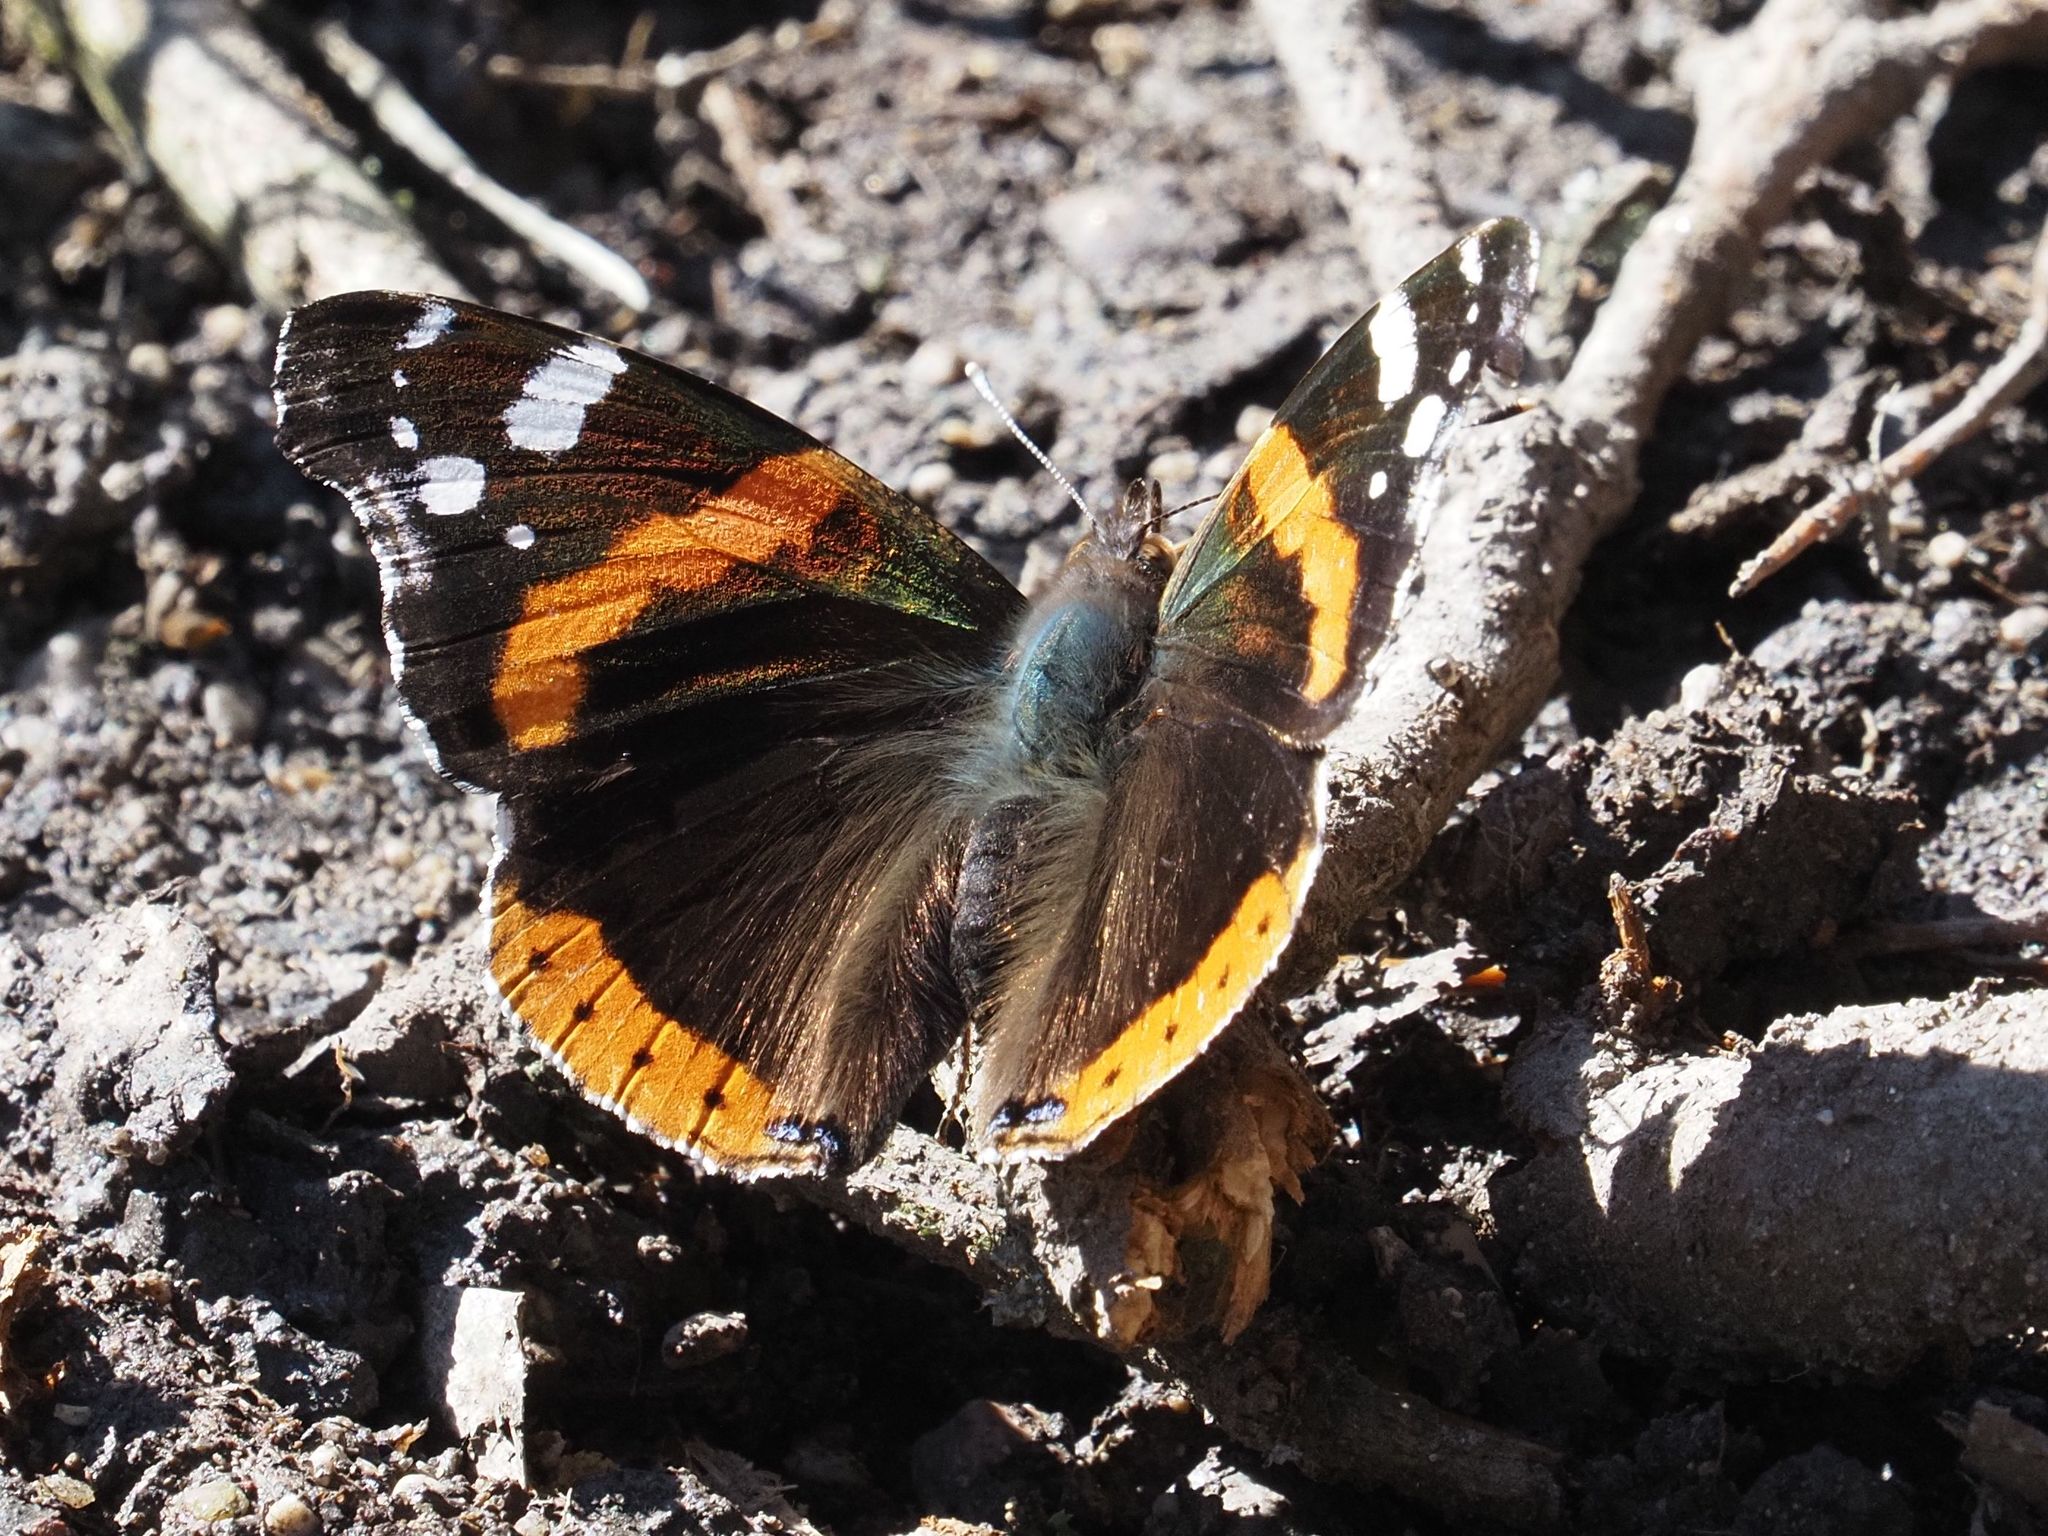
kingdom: Animalia
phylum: Arthropoda
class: Insecta
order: Lepidoptera
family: Nymphalidae
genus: Vanessa
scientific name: Vanessa atalanta
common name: Red admiral
